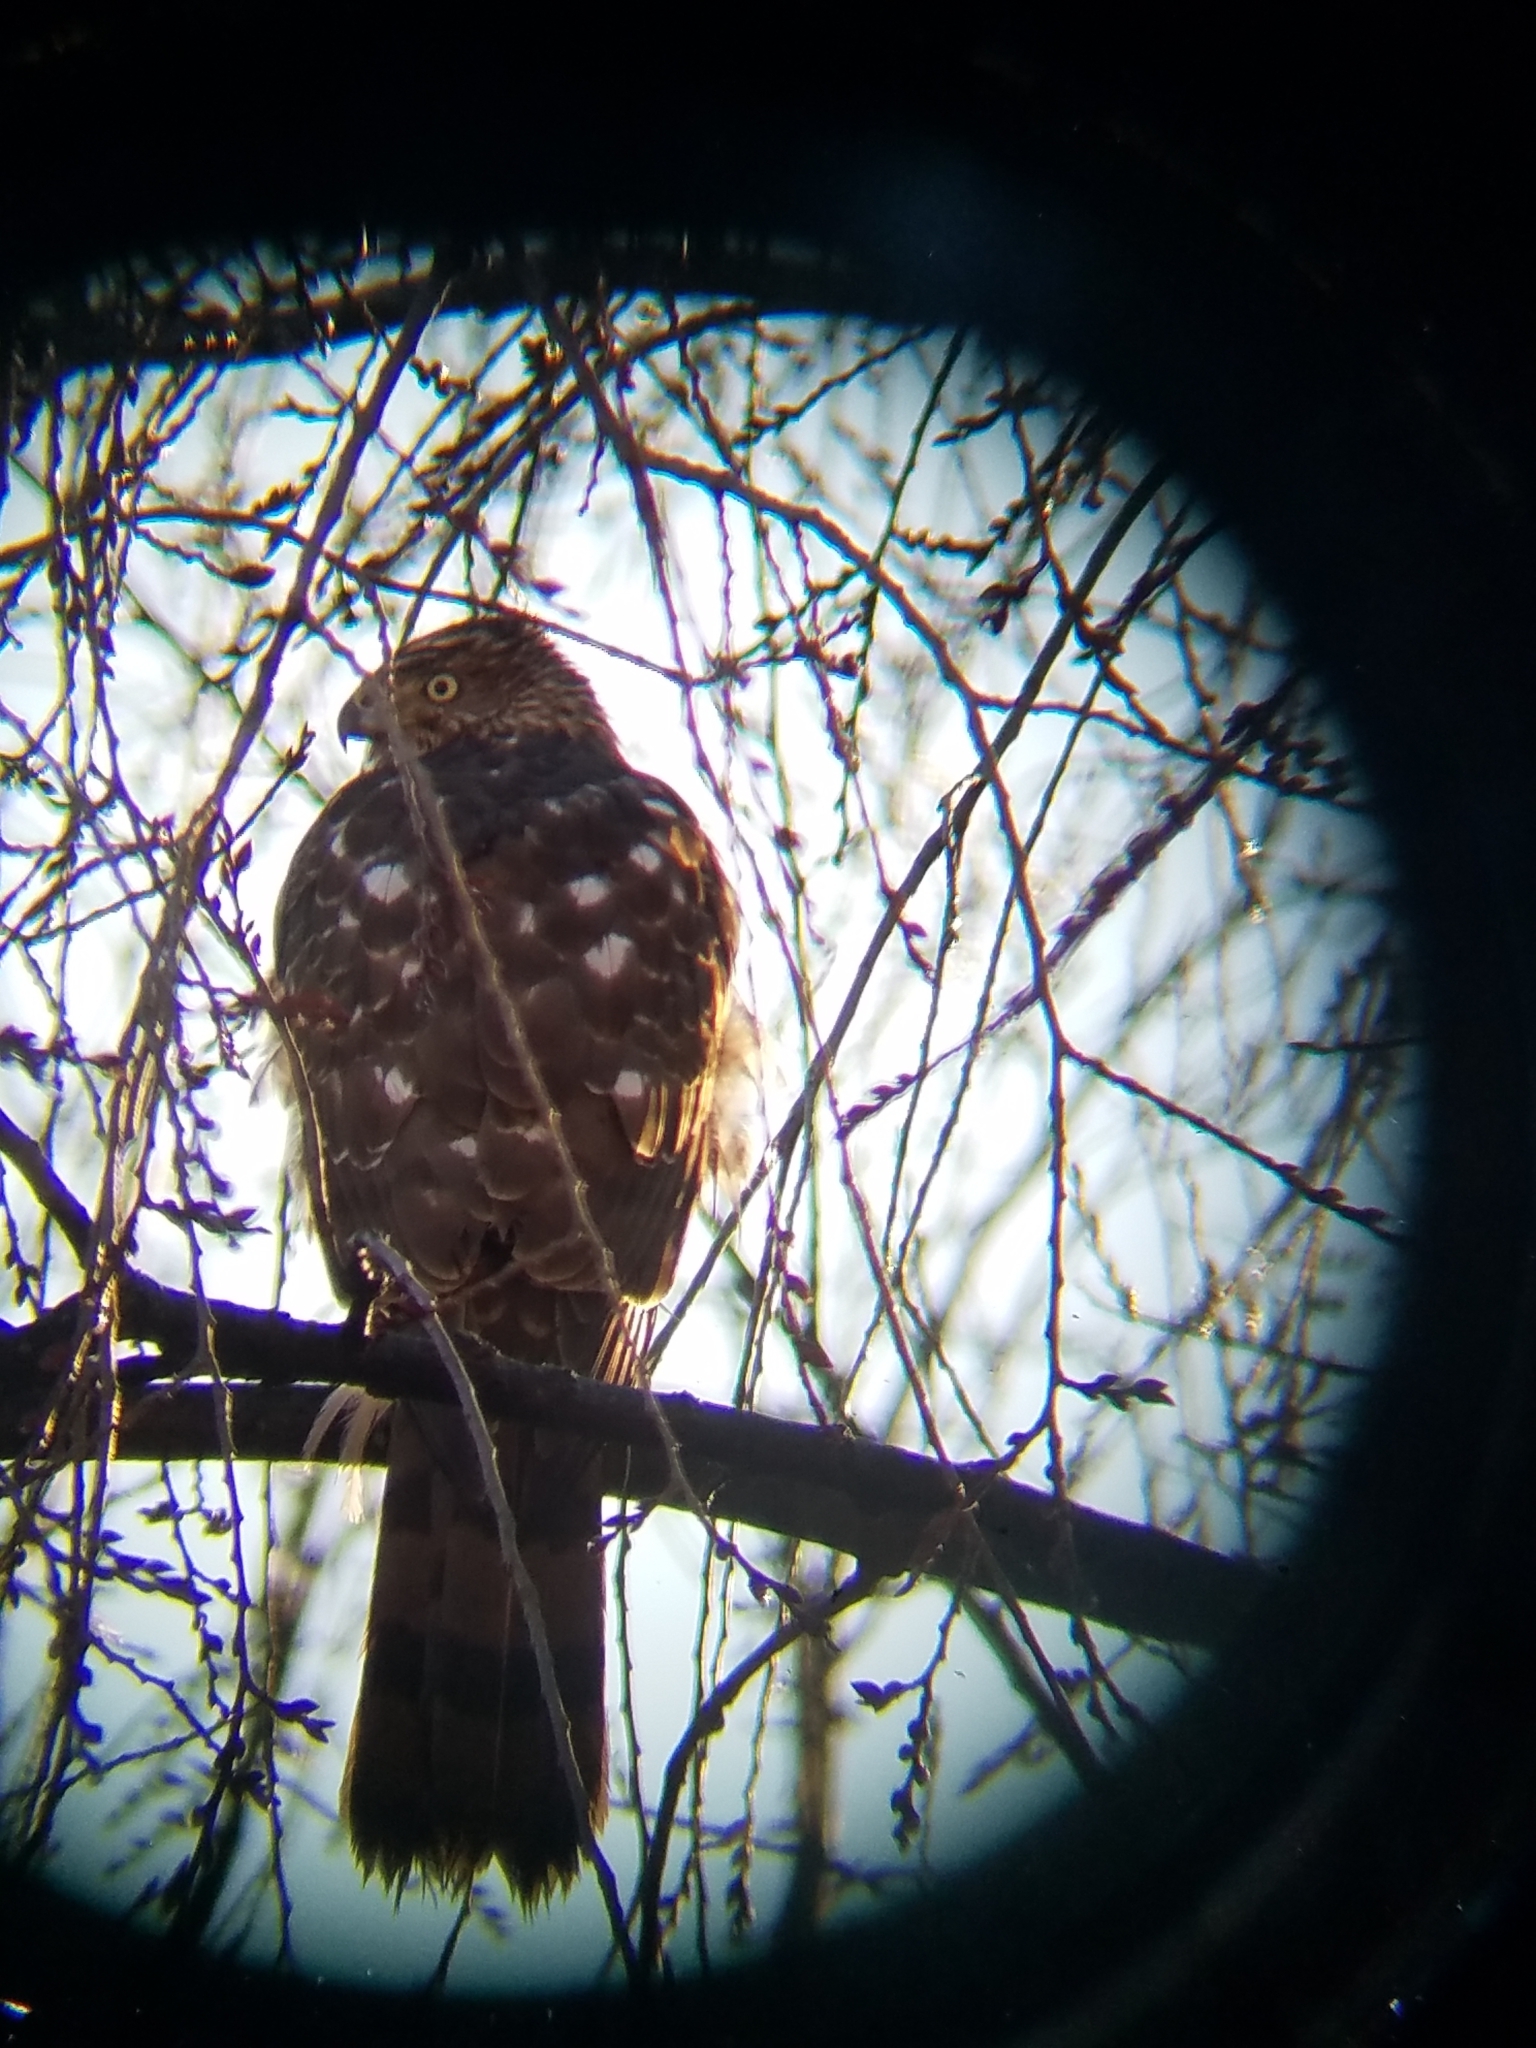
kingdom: Animalia
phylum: Chordata
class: Aves
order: Accipitriformes
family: Accipitridae
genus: Accipiter
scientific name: Accipiter cooperii
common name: Cooper's hawk
